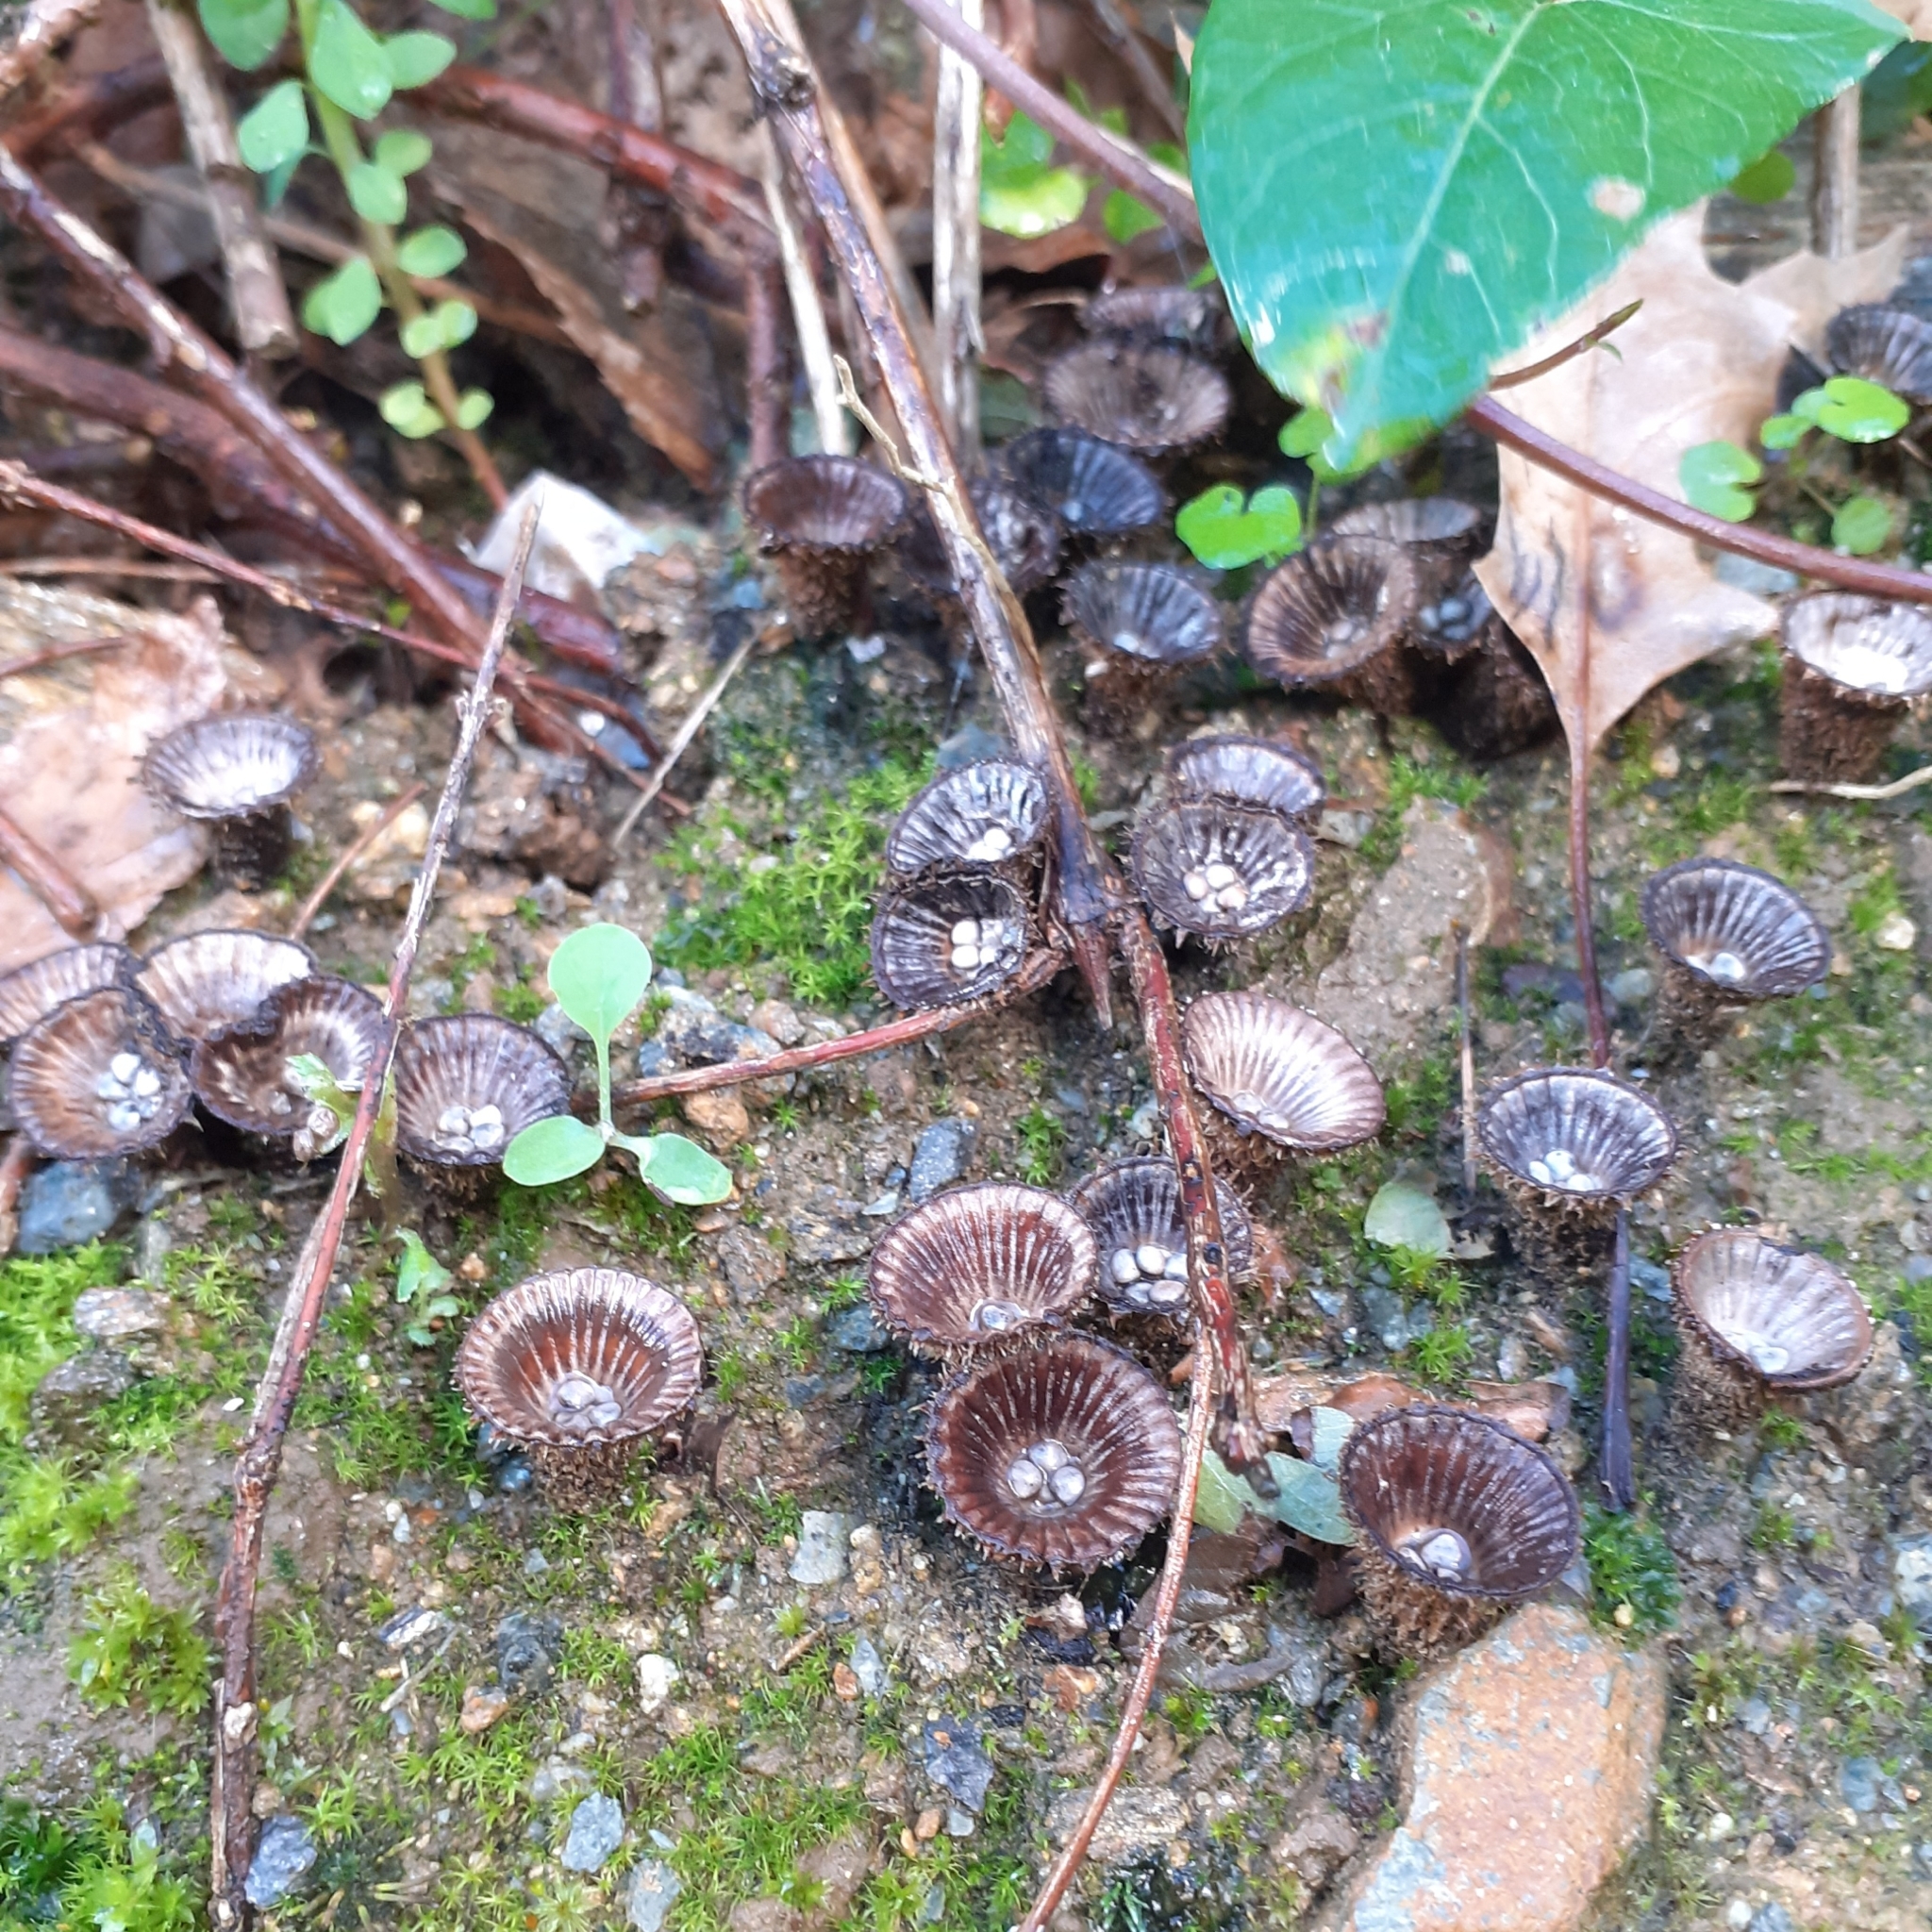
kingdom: Fungi
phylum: Basidiomycota
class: Agaricomycetes
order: Agaricales
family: Agaricaceae
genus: Cyathus
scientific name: Cyathus striatus
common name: Fluted bird's nest
